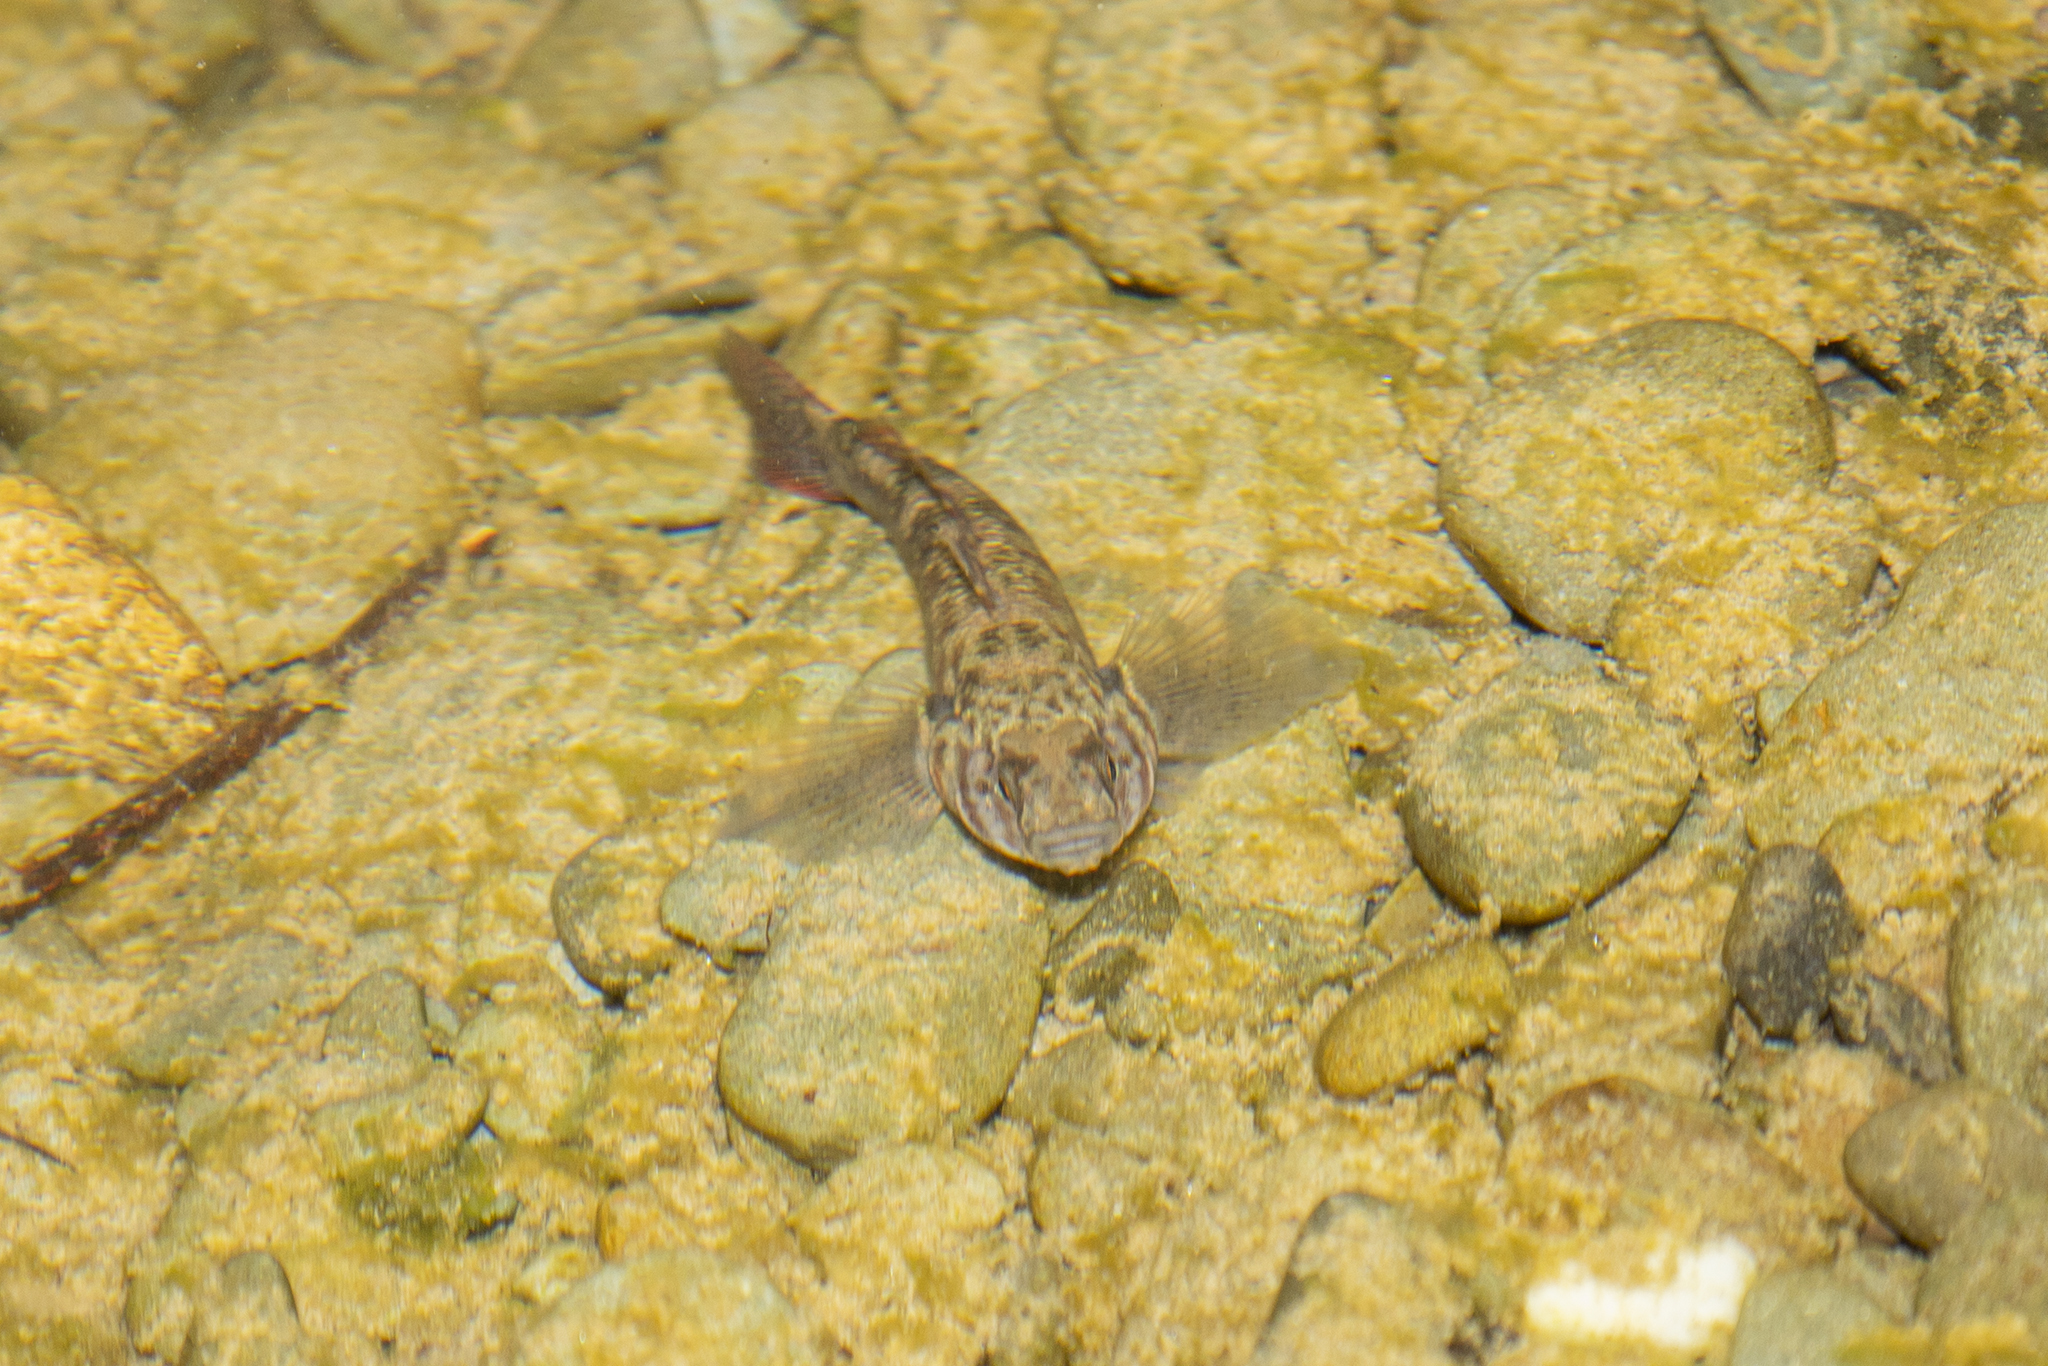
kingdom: Animalia
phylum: Chordata
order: Perciformes
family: Eleotridae
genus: Gobiomorphus
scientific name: Gobiomorphus huttoni
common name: Redfin bully
